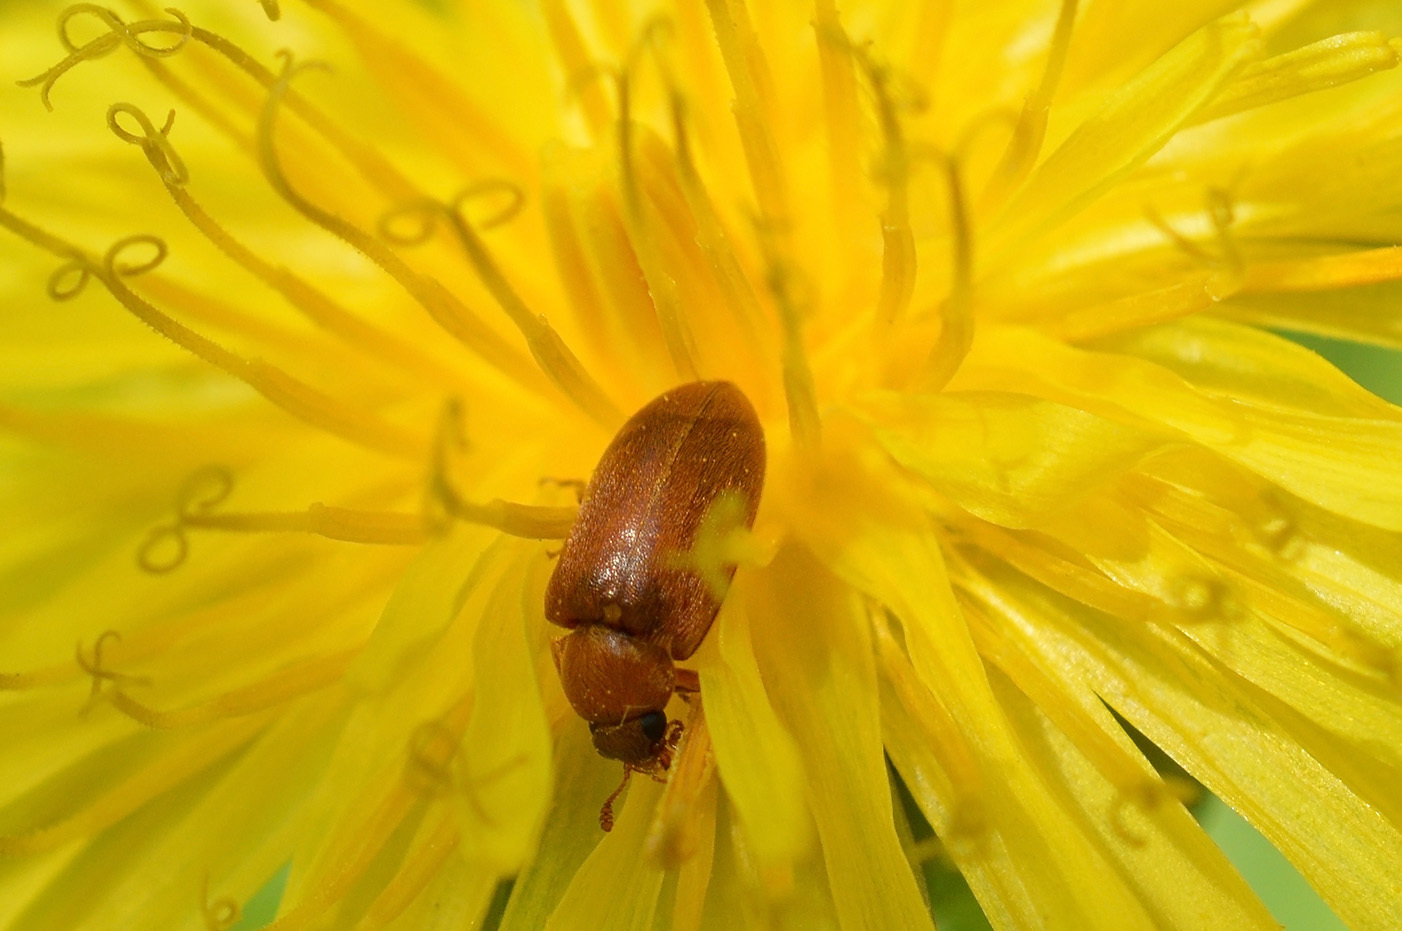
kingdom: Animalia
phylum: Arthropoda
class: Insecta
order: Coleoptera
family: Byturidae
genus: Byturus
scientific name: Byturus ochraceus
